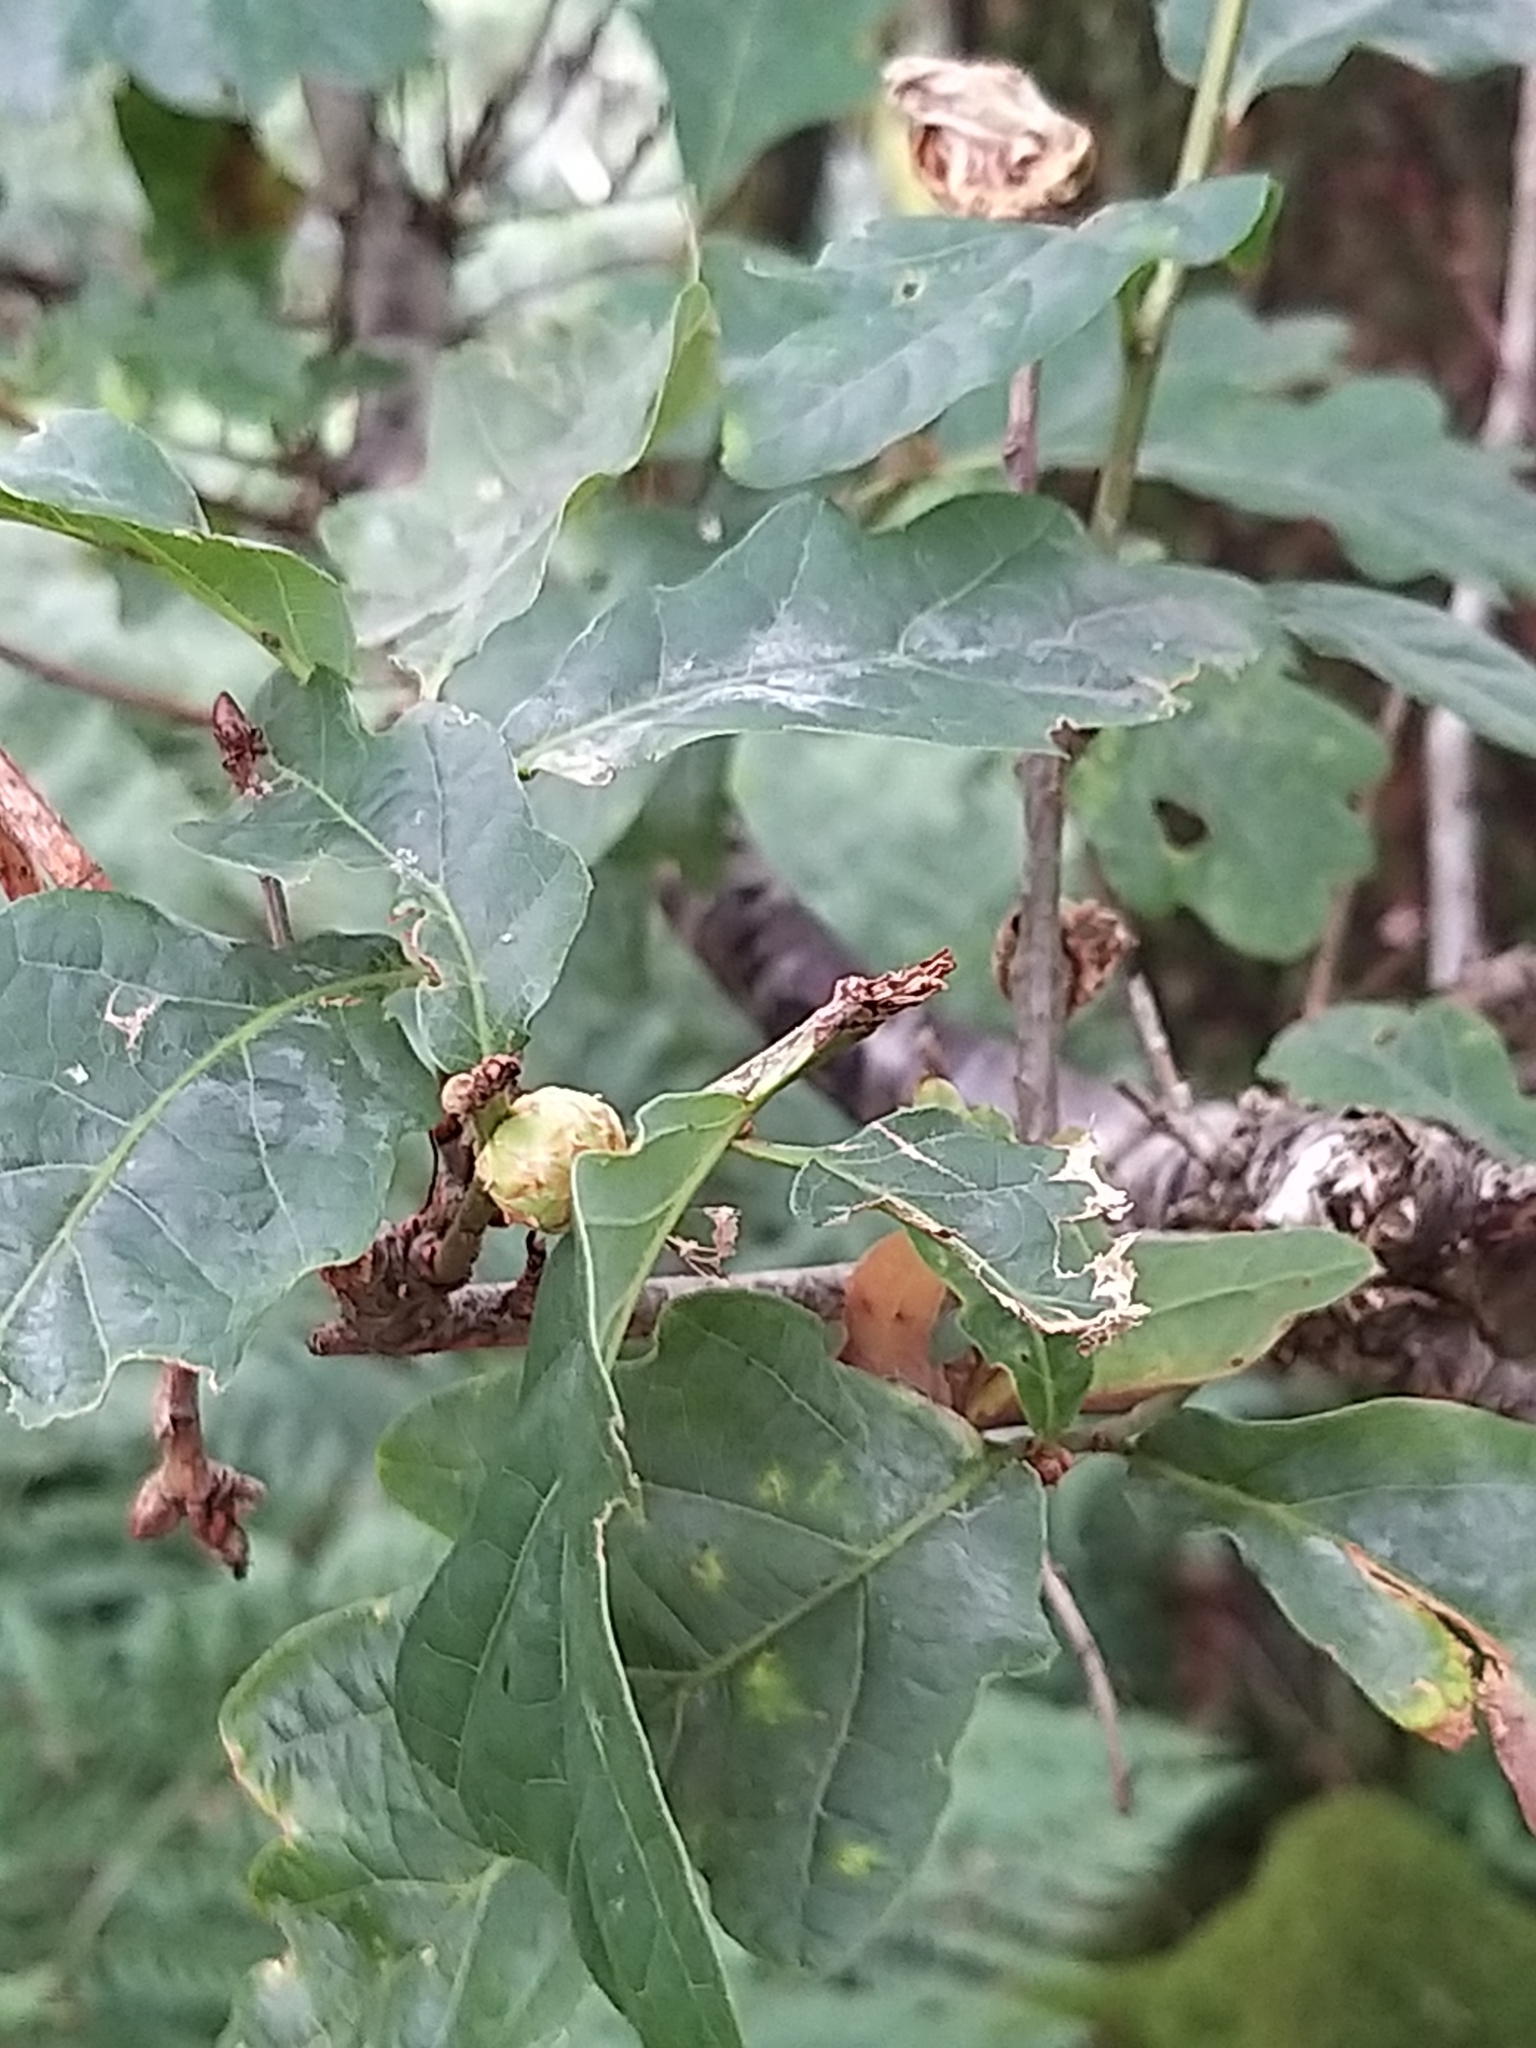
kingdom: Animalia
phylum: Arthropoda
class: Insecta
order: Hymenoptera
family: Cynipidae
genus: Andricus
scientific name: Andricus foecundatrix
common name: Artichoke gall
